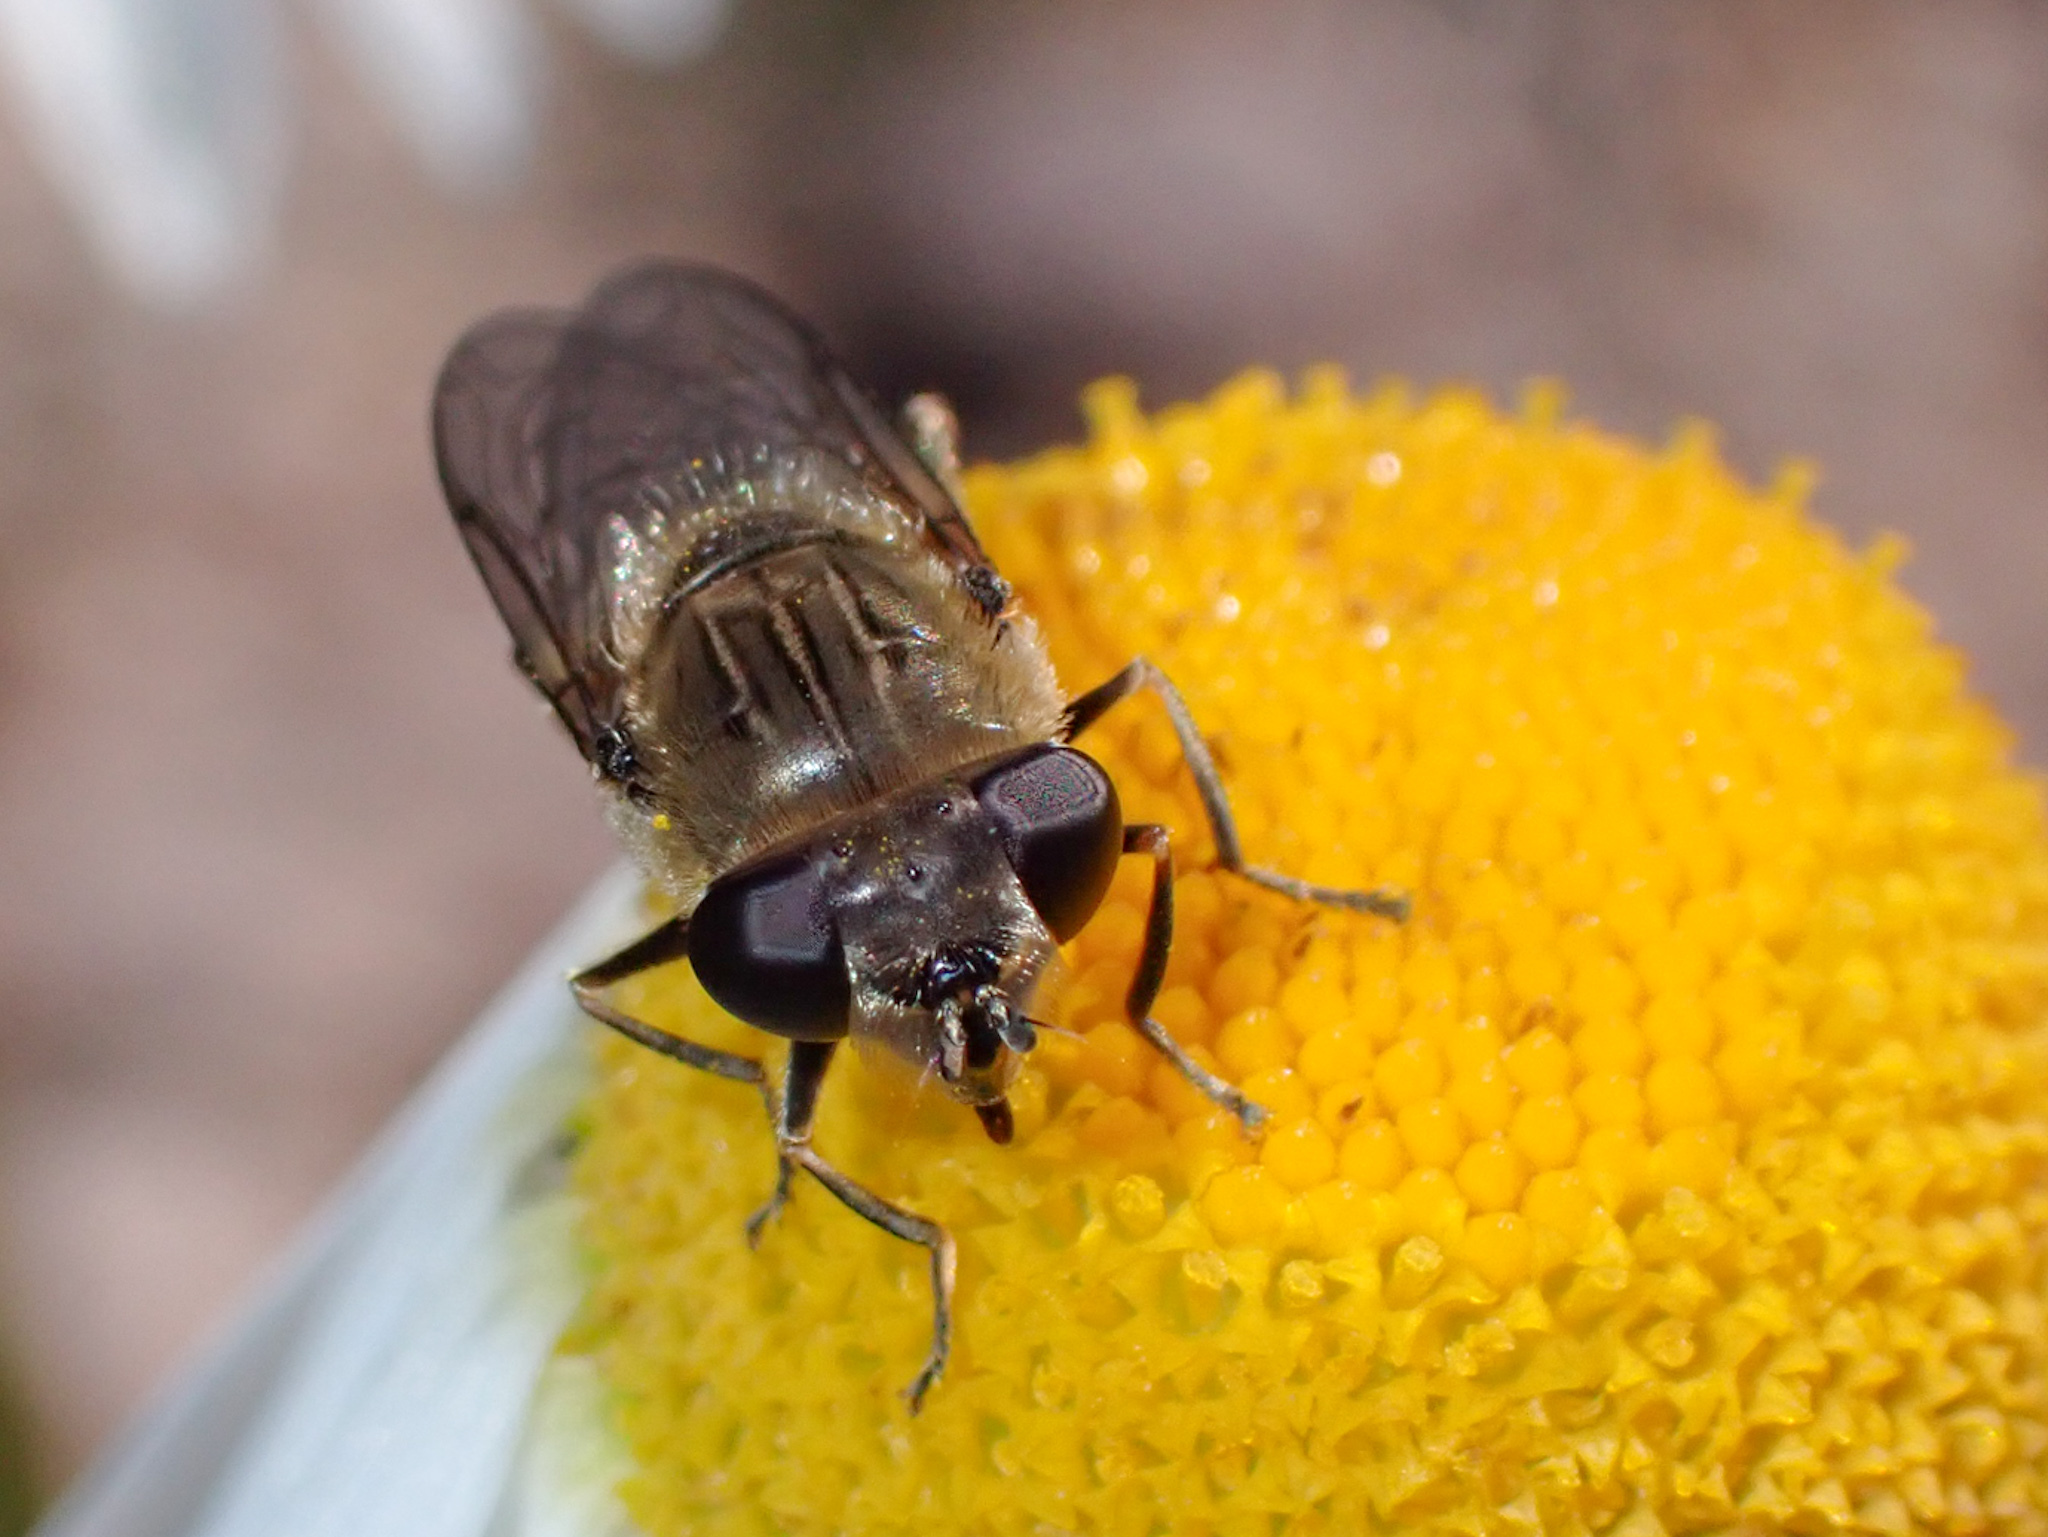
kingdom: Animalia
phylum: Arthropoda
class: Insecta
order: Diptera
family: Syrphidae
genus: Asemosyrphus
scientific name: Asemosyrphus polygrammus
